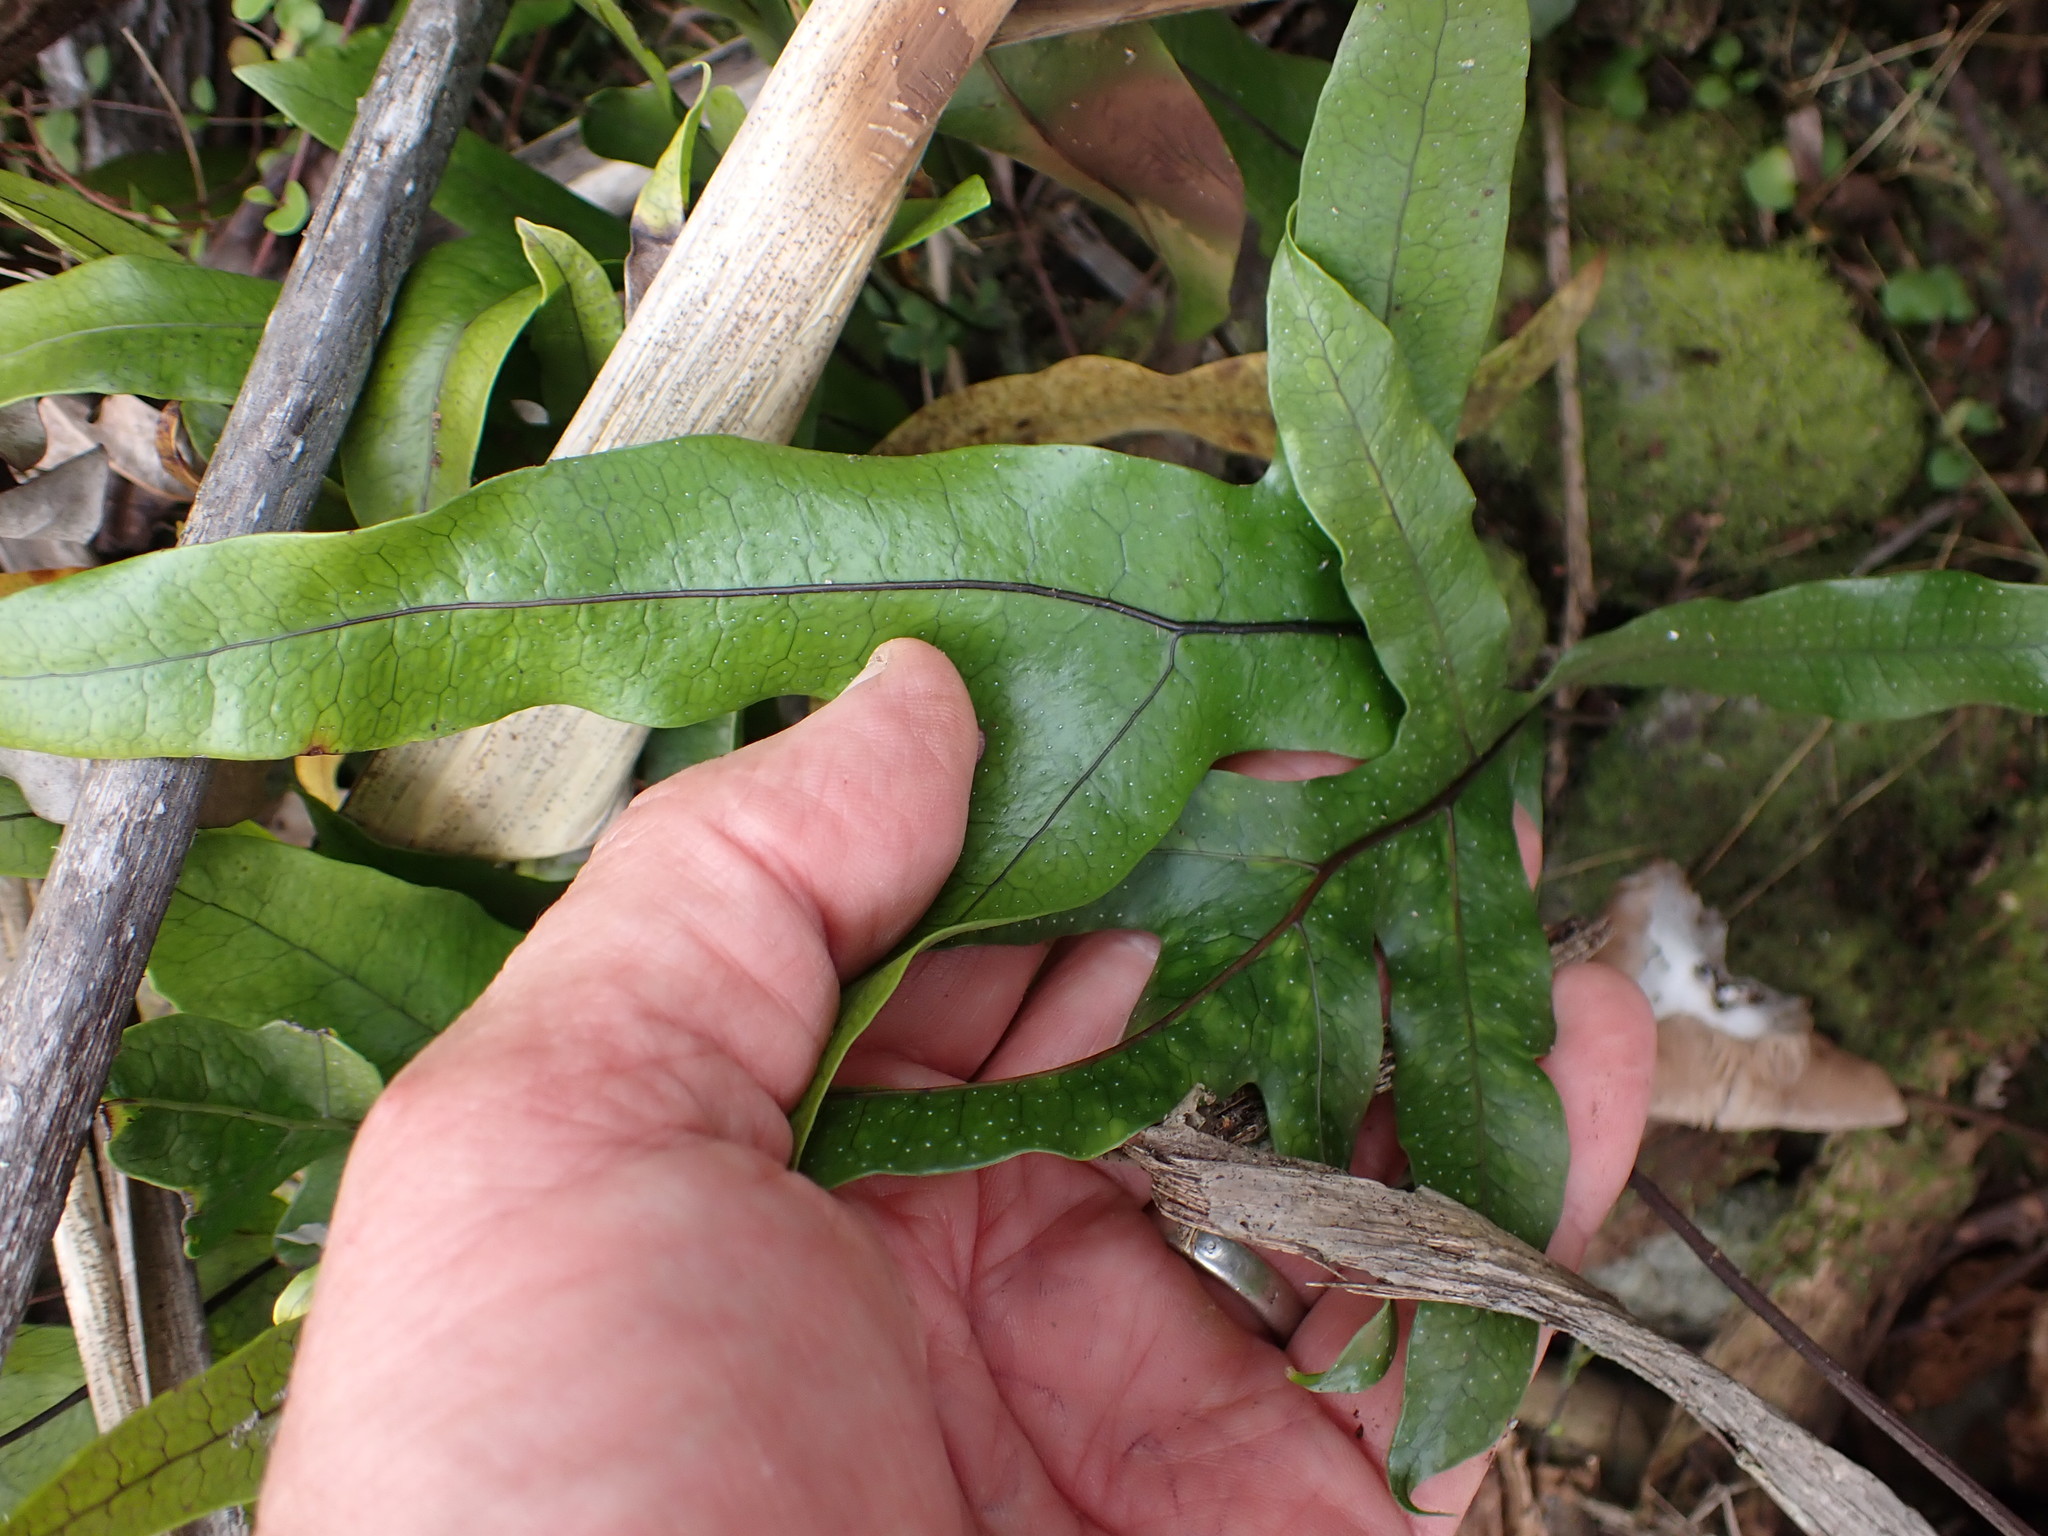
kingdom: Plantae
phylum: Tracheophyta
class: Polypodiopsida
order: Polypodiales
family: Polypodiaceae
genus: Lecanopteris
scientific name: Lecanopteris pustulata
